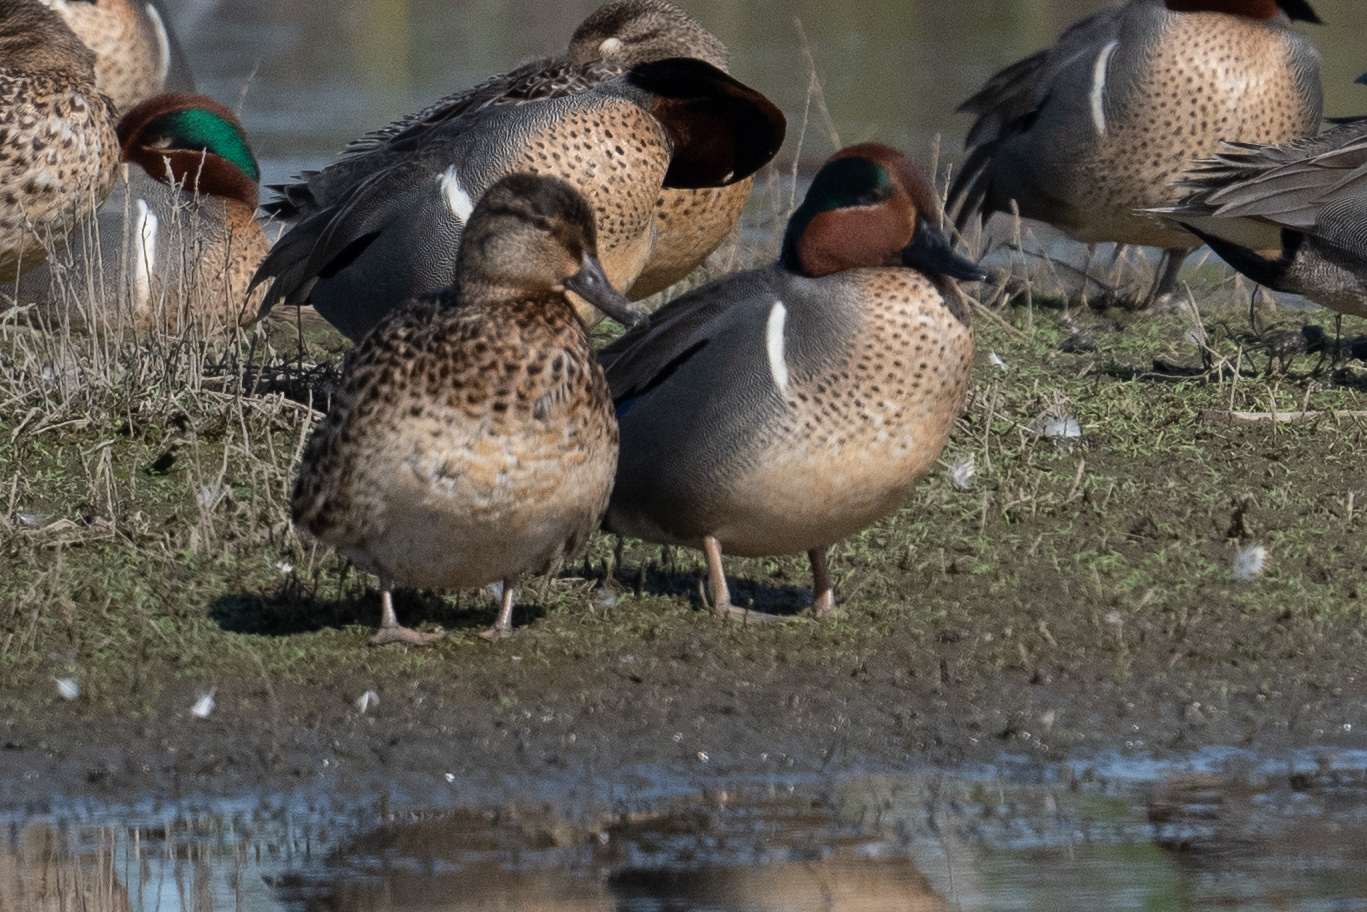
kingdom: Animalia
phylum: Chordata
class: Aves
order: Anseriformes
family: Anatidae
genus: Anas
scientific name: Anas crecca
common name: Eurasian teal
